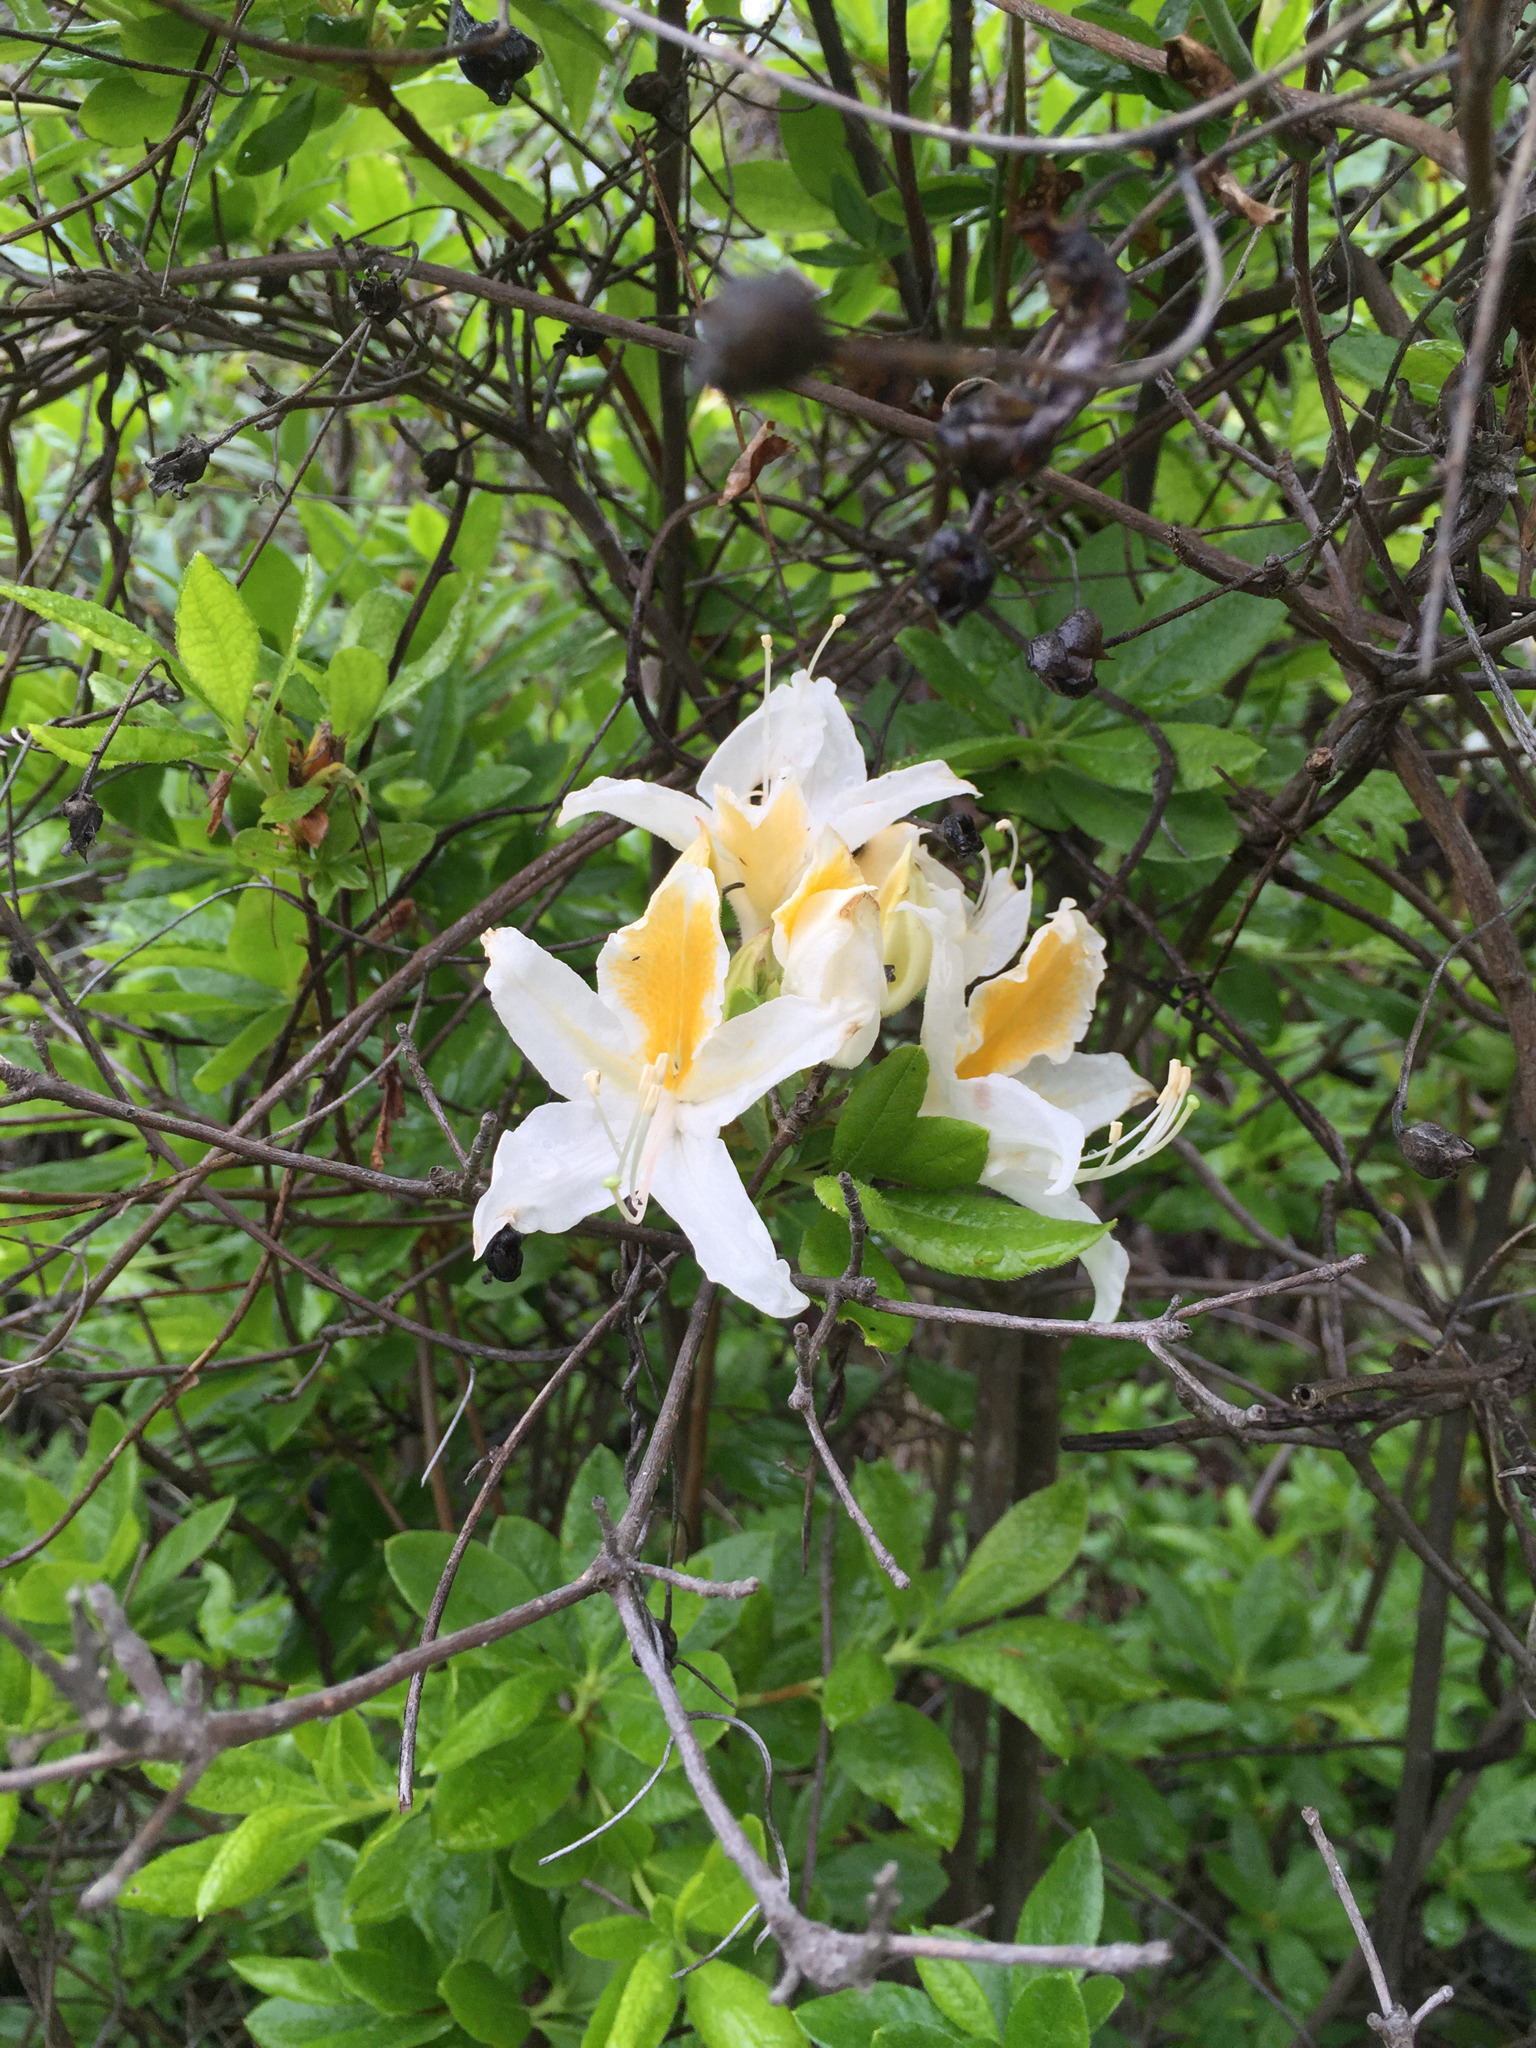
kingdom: Plantae
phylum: Tracheophyta
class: Magnoliopsida
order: Ericales
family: Ericaceae
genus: Rhododendron
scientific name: Rhododendron occidentale
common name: Western azalea
